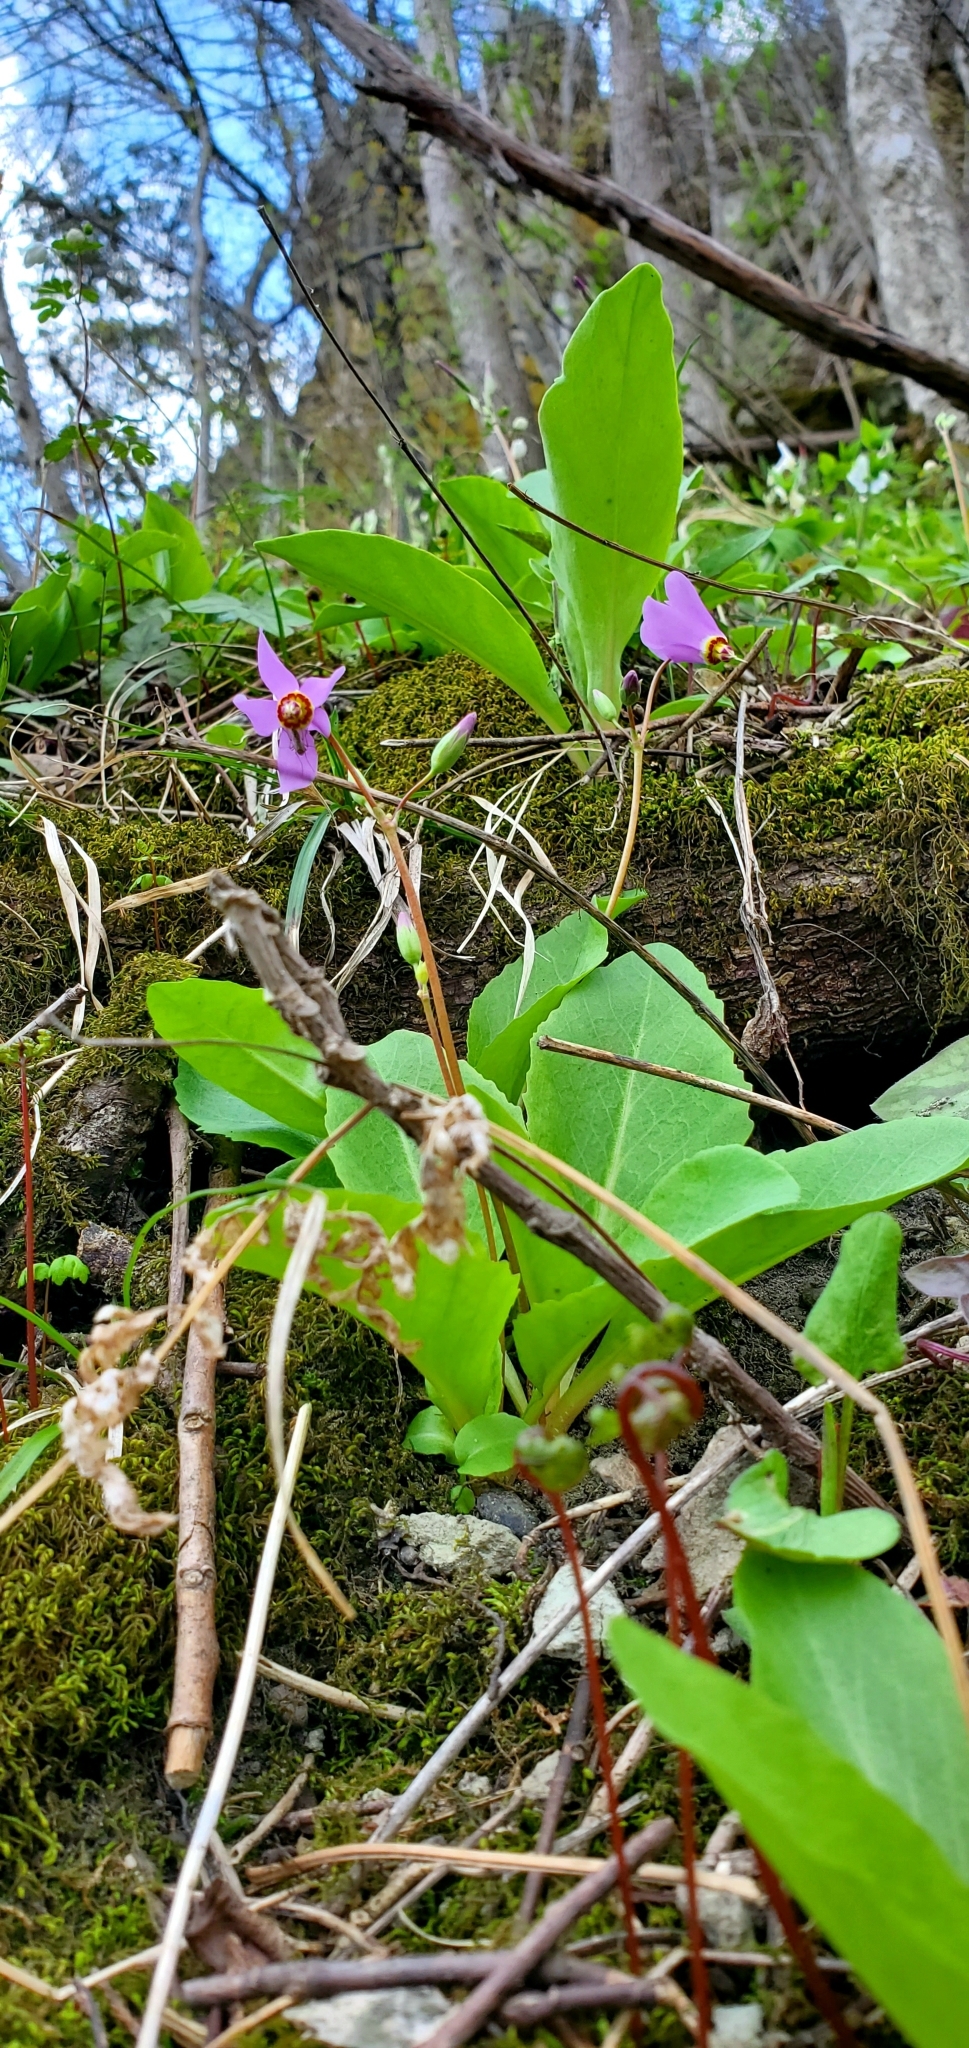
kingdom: Plantae
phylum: Tracheophyta
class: Magnoliopsida
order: Ericales
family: Primulaceae
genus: Dodecatheon
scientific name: Dodecatheon amethystinum
